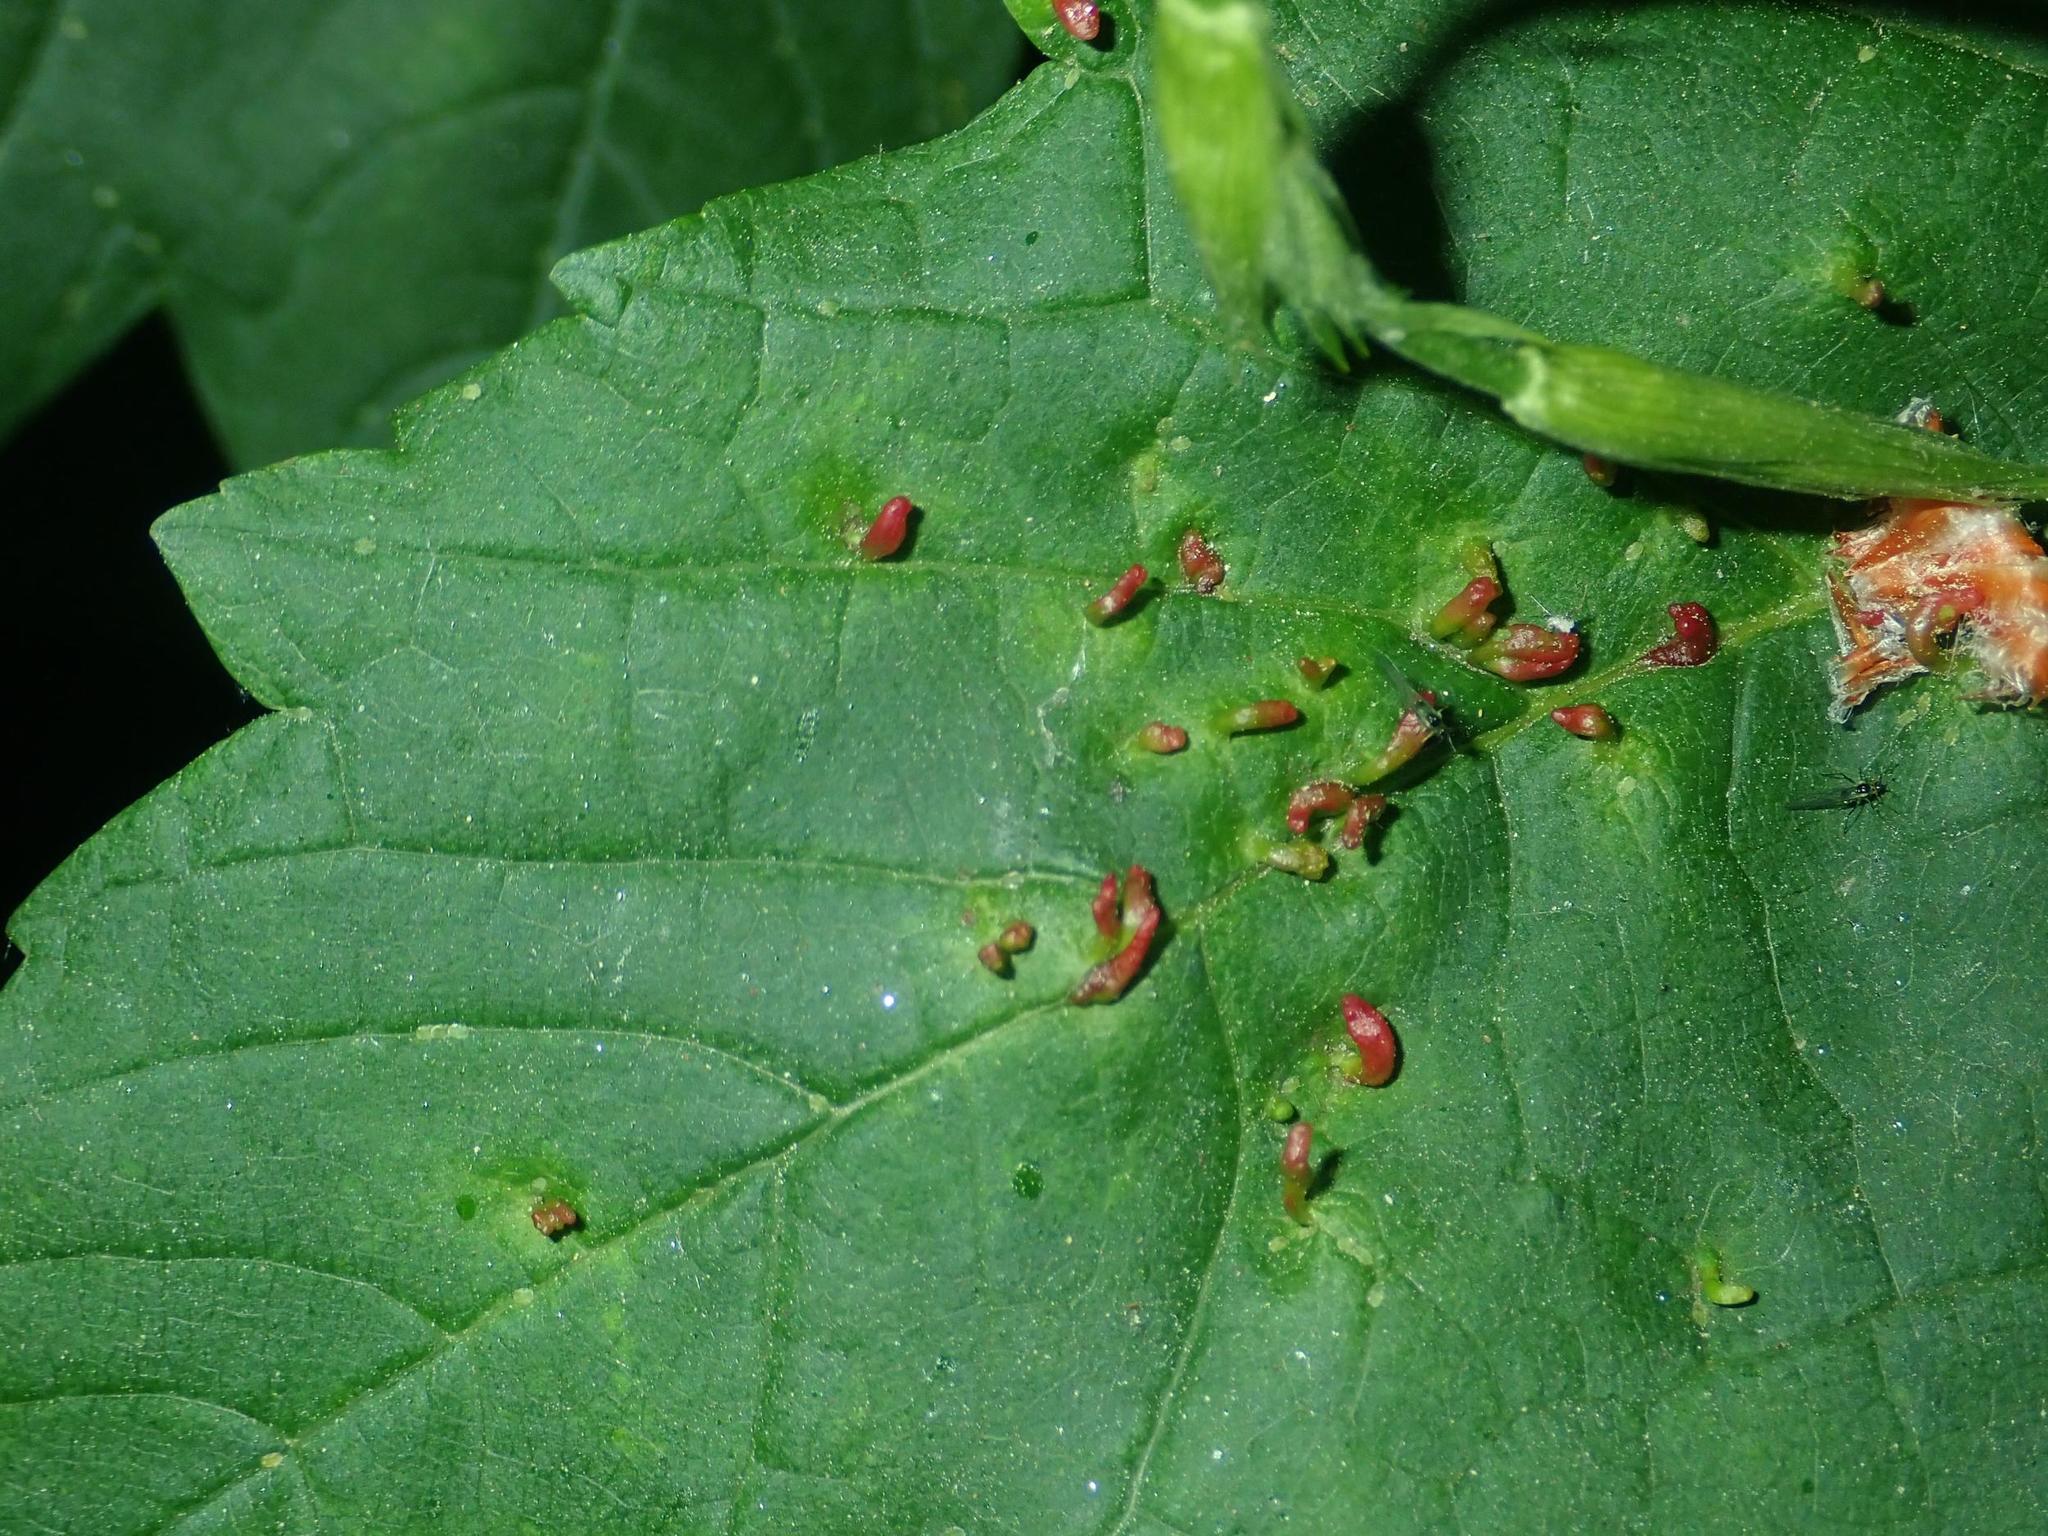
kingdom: Animalia
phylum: Arthropoda
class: Arachnida
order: Trombidiformes
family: Eriophyidae
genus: Aceria
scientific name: Aceria cephaloneus
